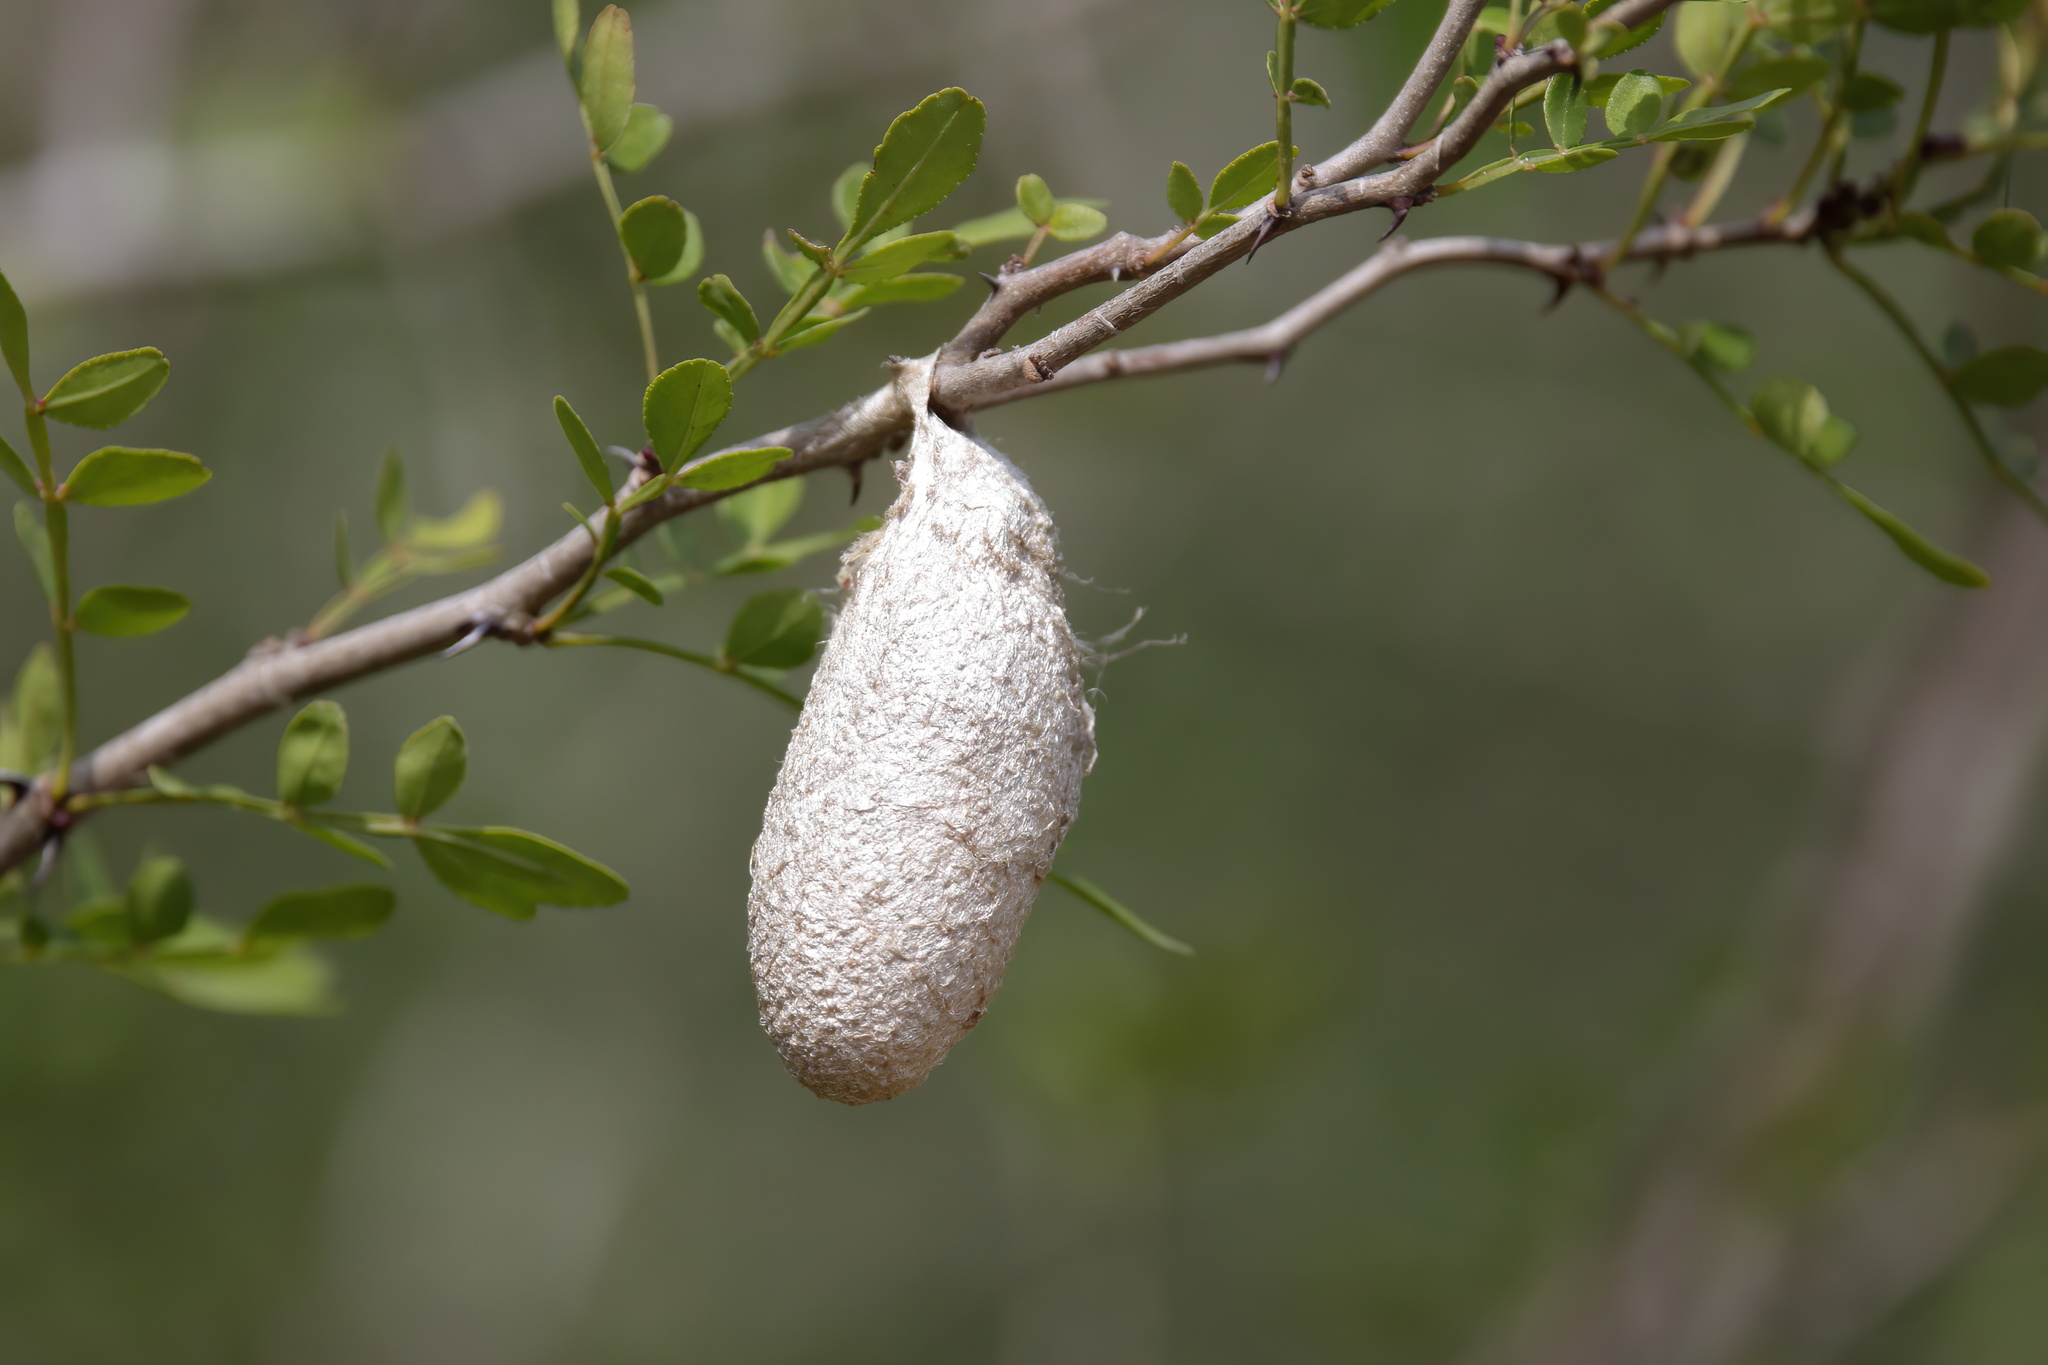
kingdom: Animalia
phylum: Arthropoda
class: Insecta
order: Lepidoptera
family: Saturniidae
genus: Rothschildia
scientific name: Rothschildia lebeau
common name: Lebeau's rothschildia
